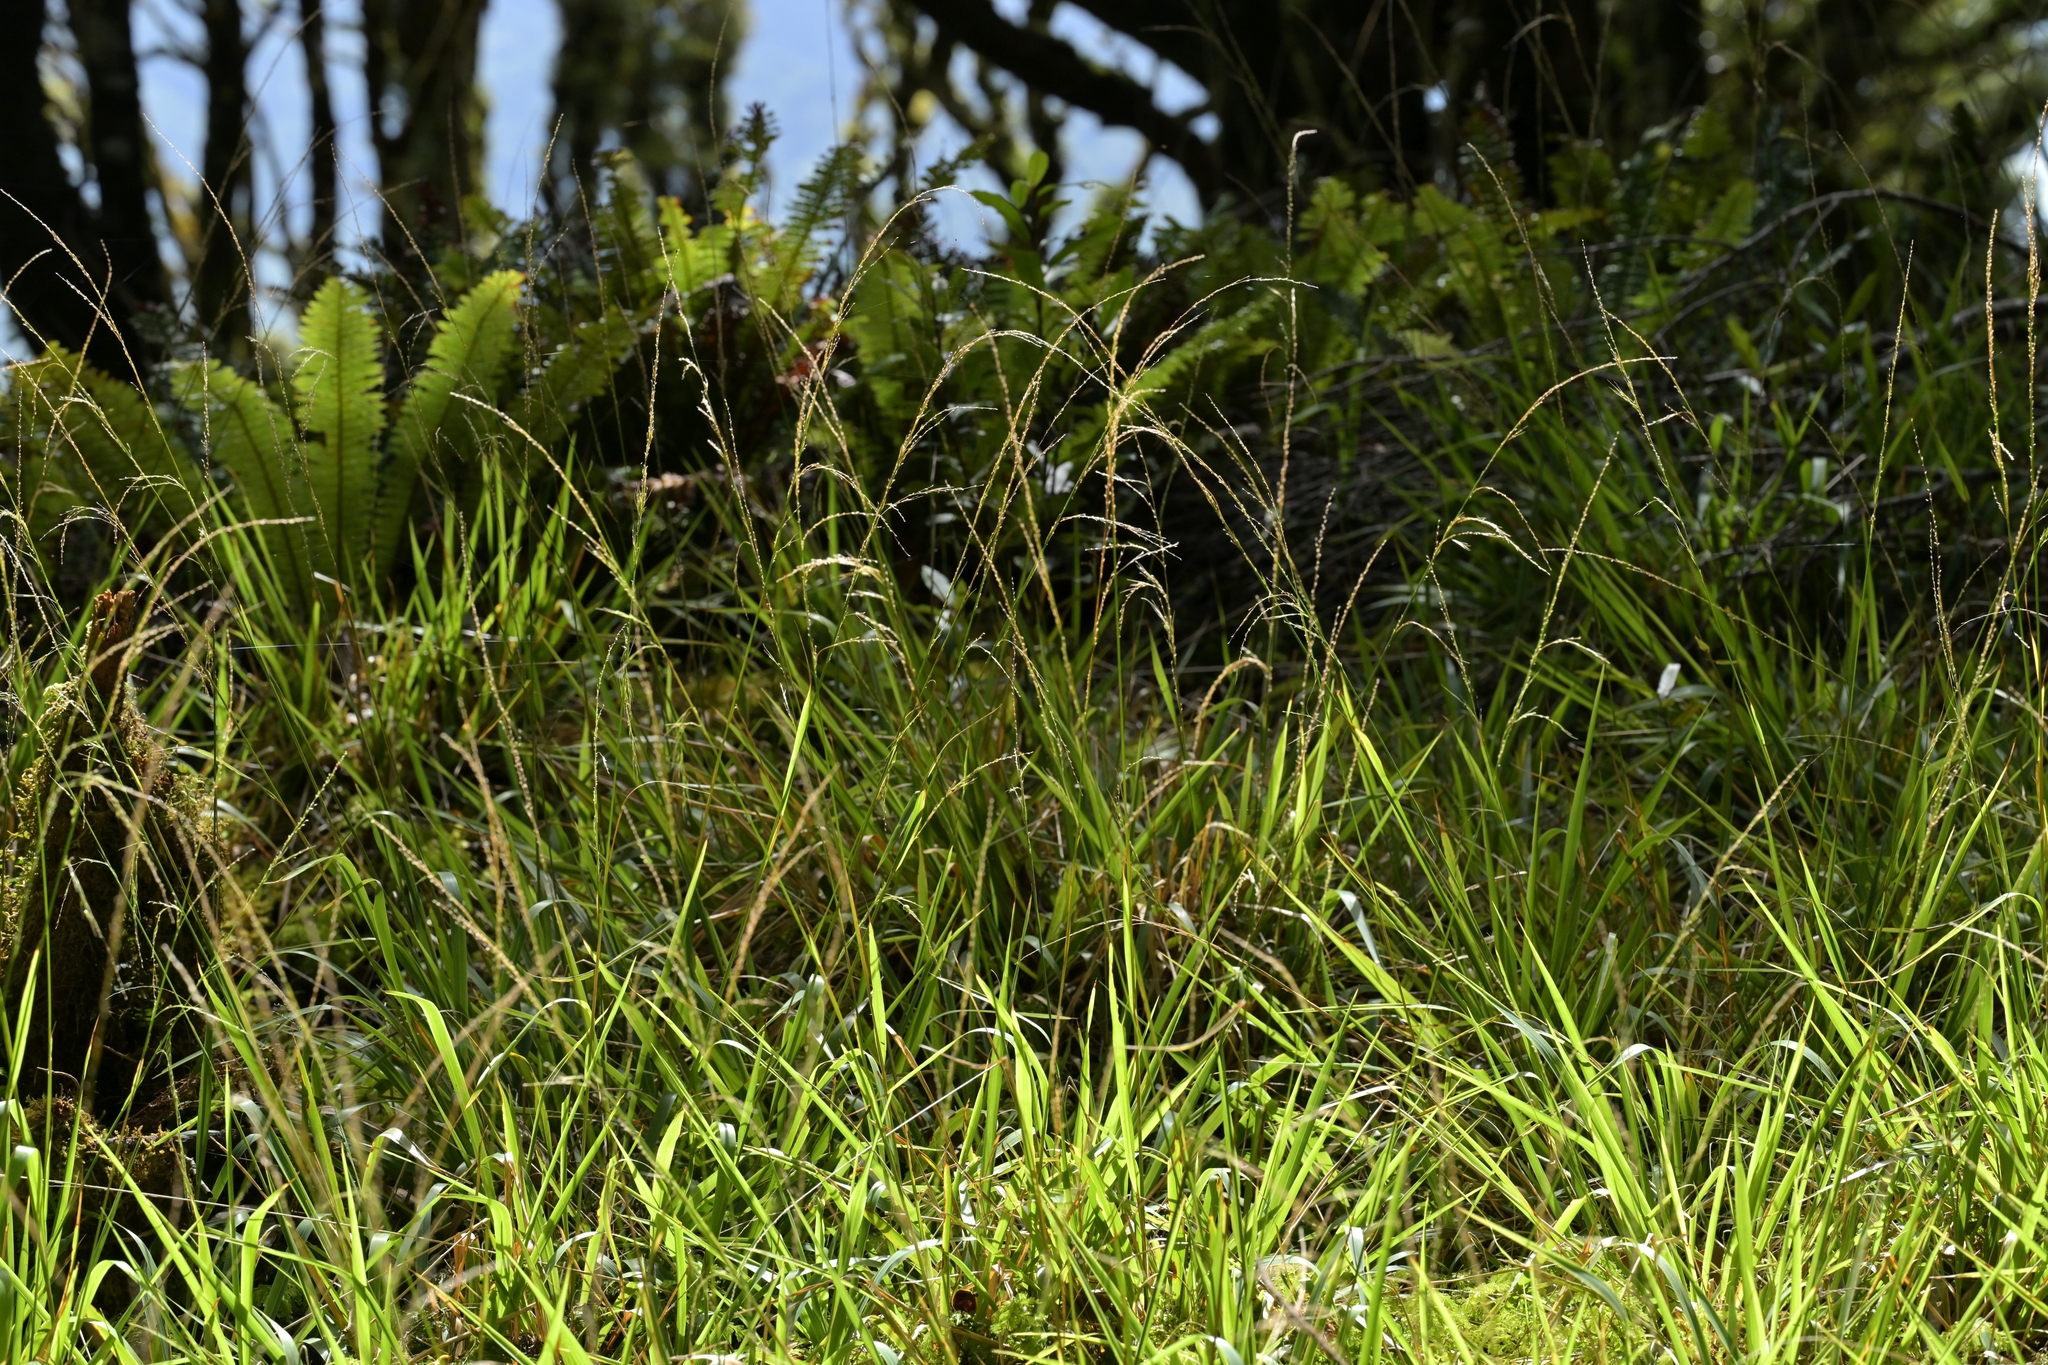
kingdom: Plantae
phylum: Tracheophyta
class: Liliopsida
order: Poales
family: Poaceae
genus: Ehrharta
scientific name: Ehrharta diplax
